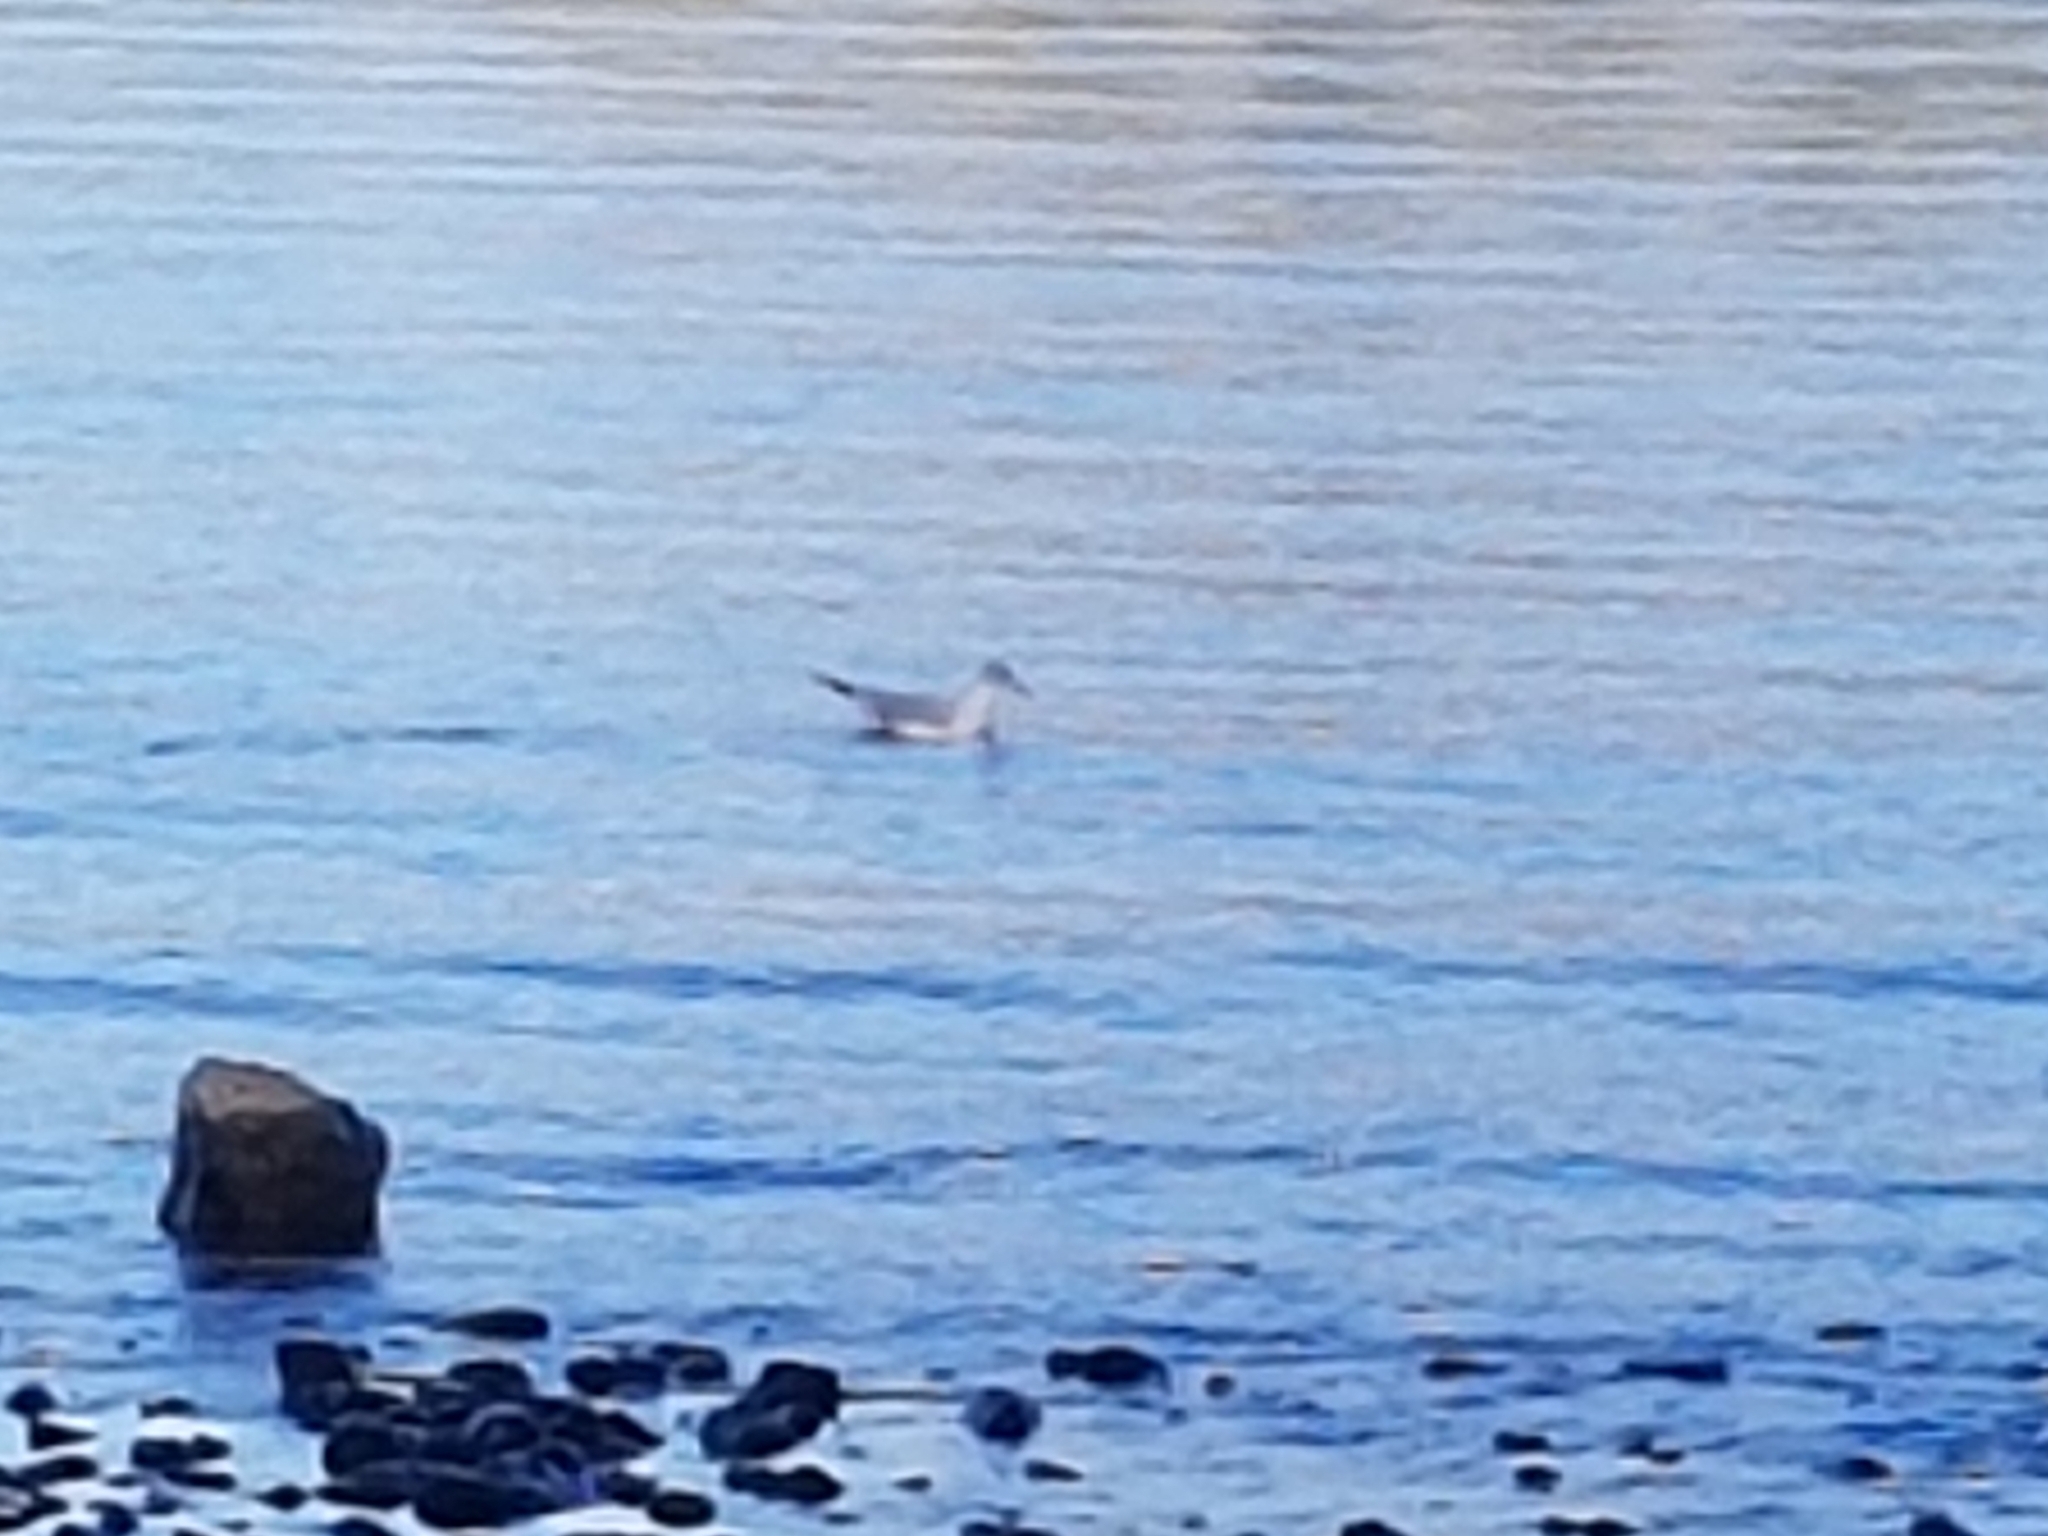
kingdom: Animalia
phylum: Chordata
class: Aves
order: Charadriiformes
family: Laridae
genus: Chroicocephalus
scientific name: Chroicocephalus ridibundus
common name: Black-headed gull
